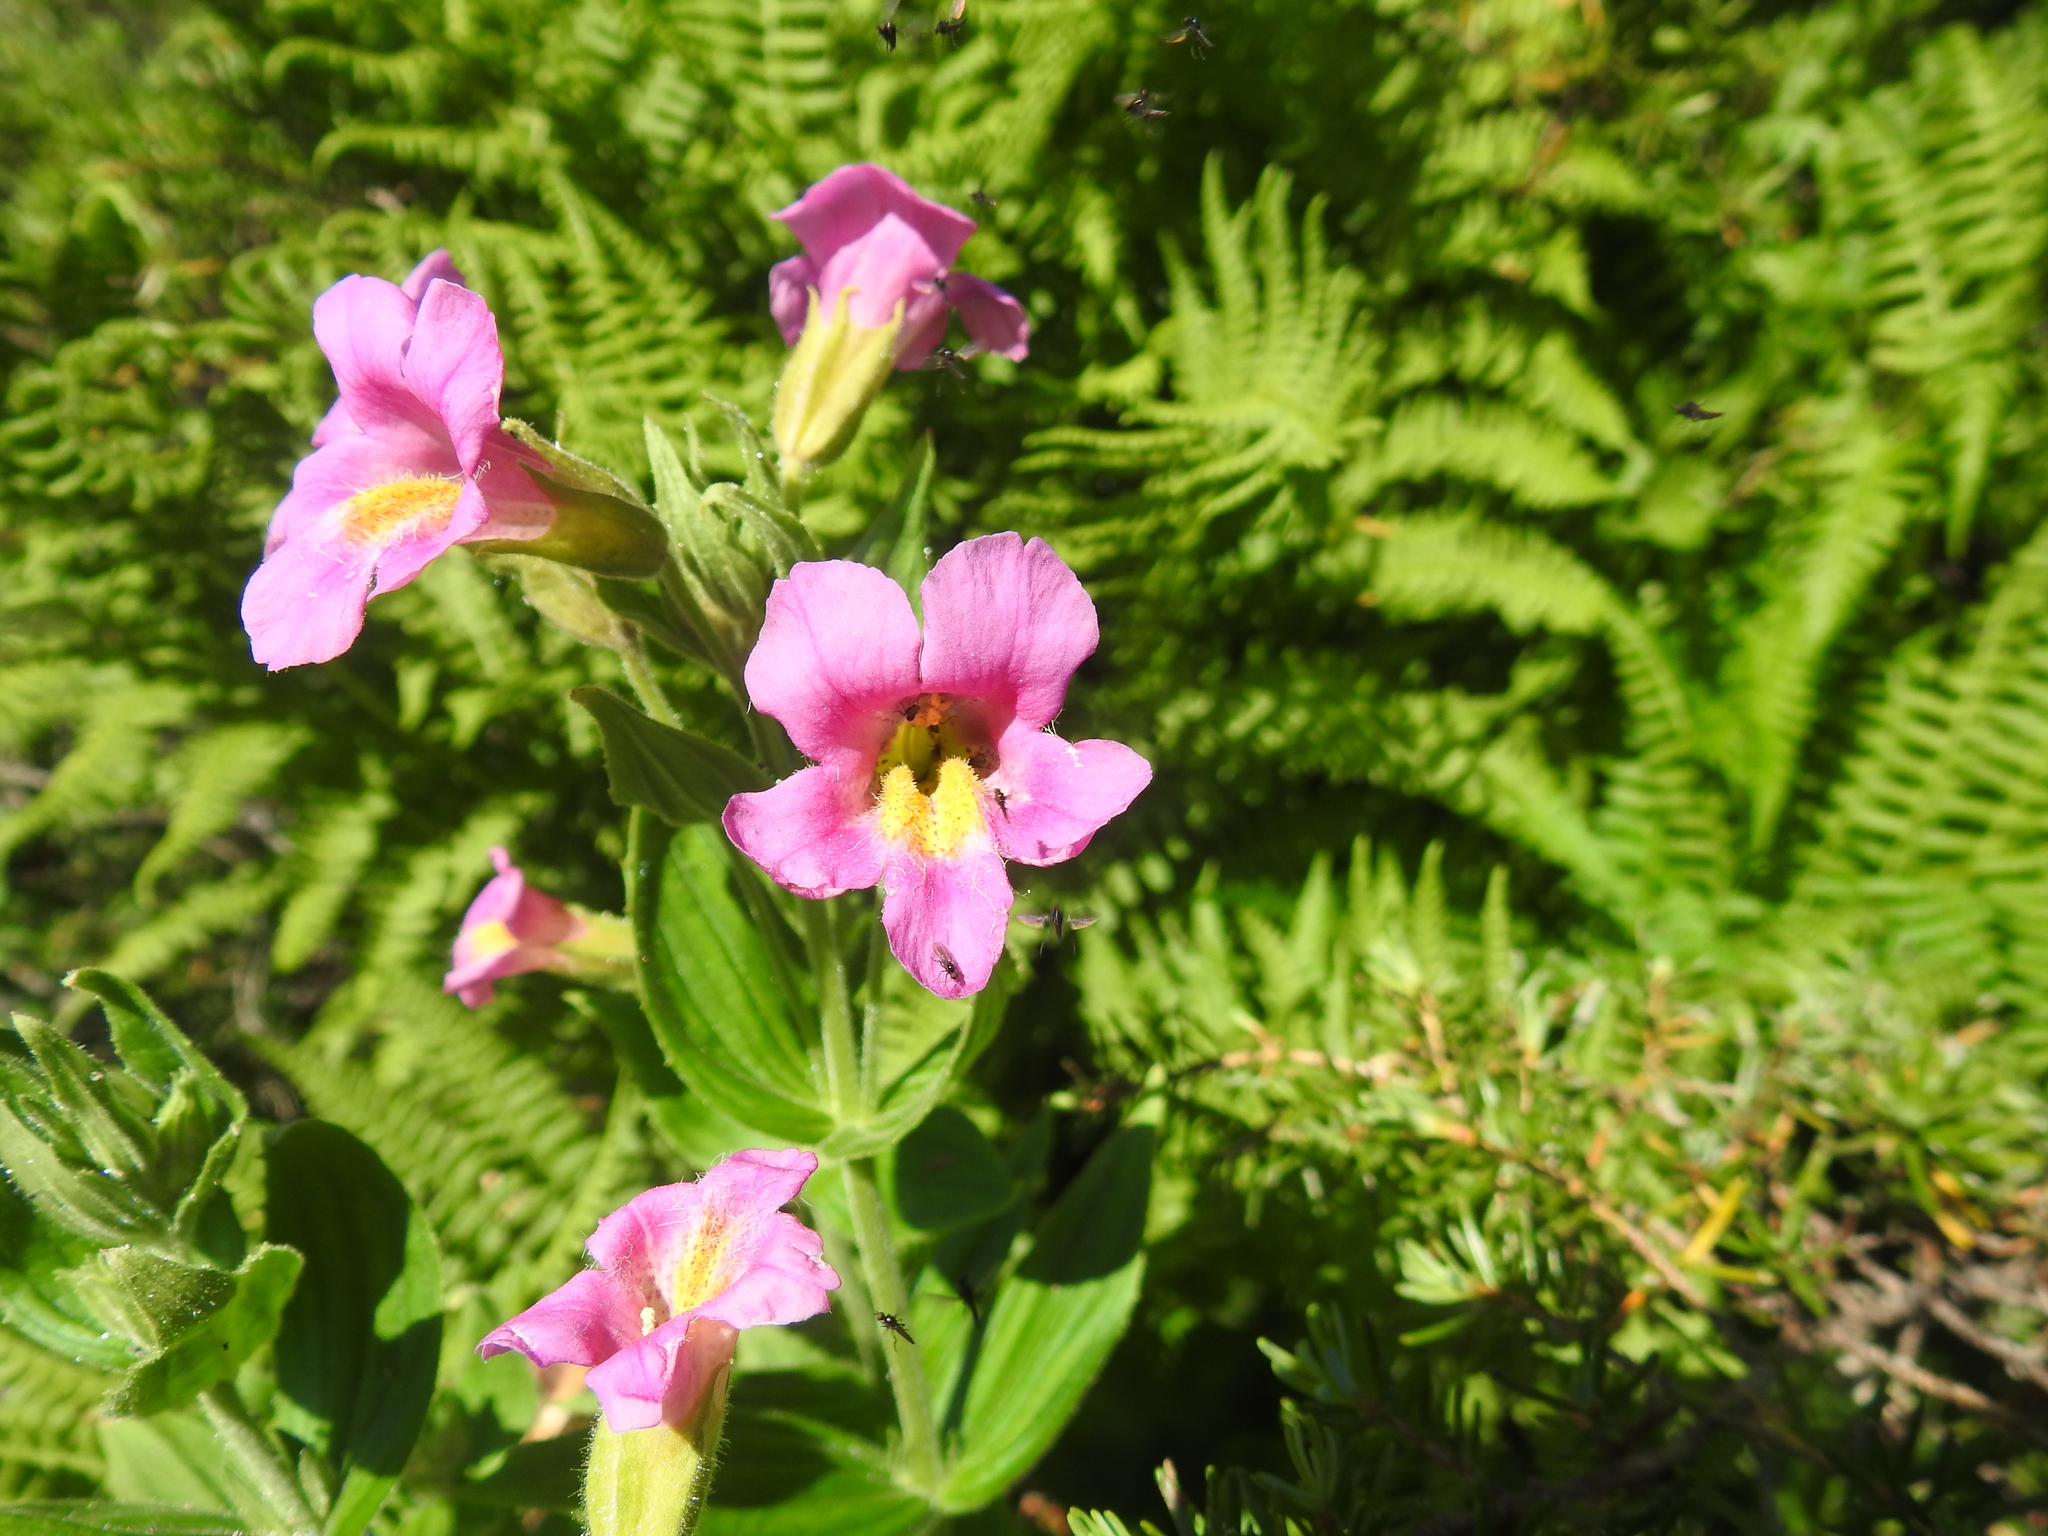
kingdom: Plantae
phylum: Tracheophyta
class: Magnoliopsida
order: Lamiales
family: Phrymaceae
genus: Erythranthe
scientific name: Erythranthe lewisii
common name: Lewis's monkey-flower
